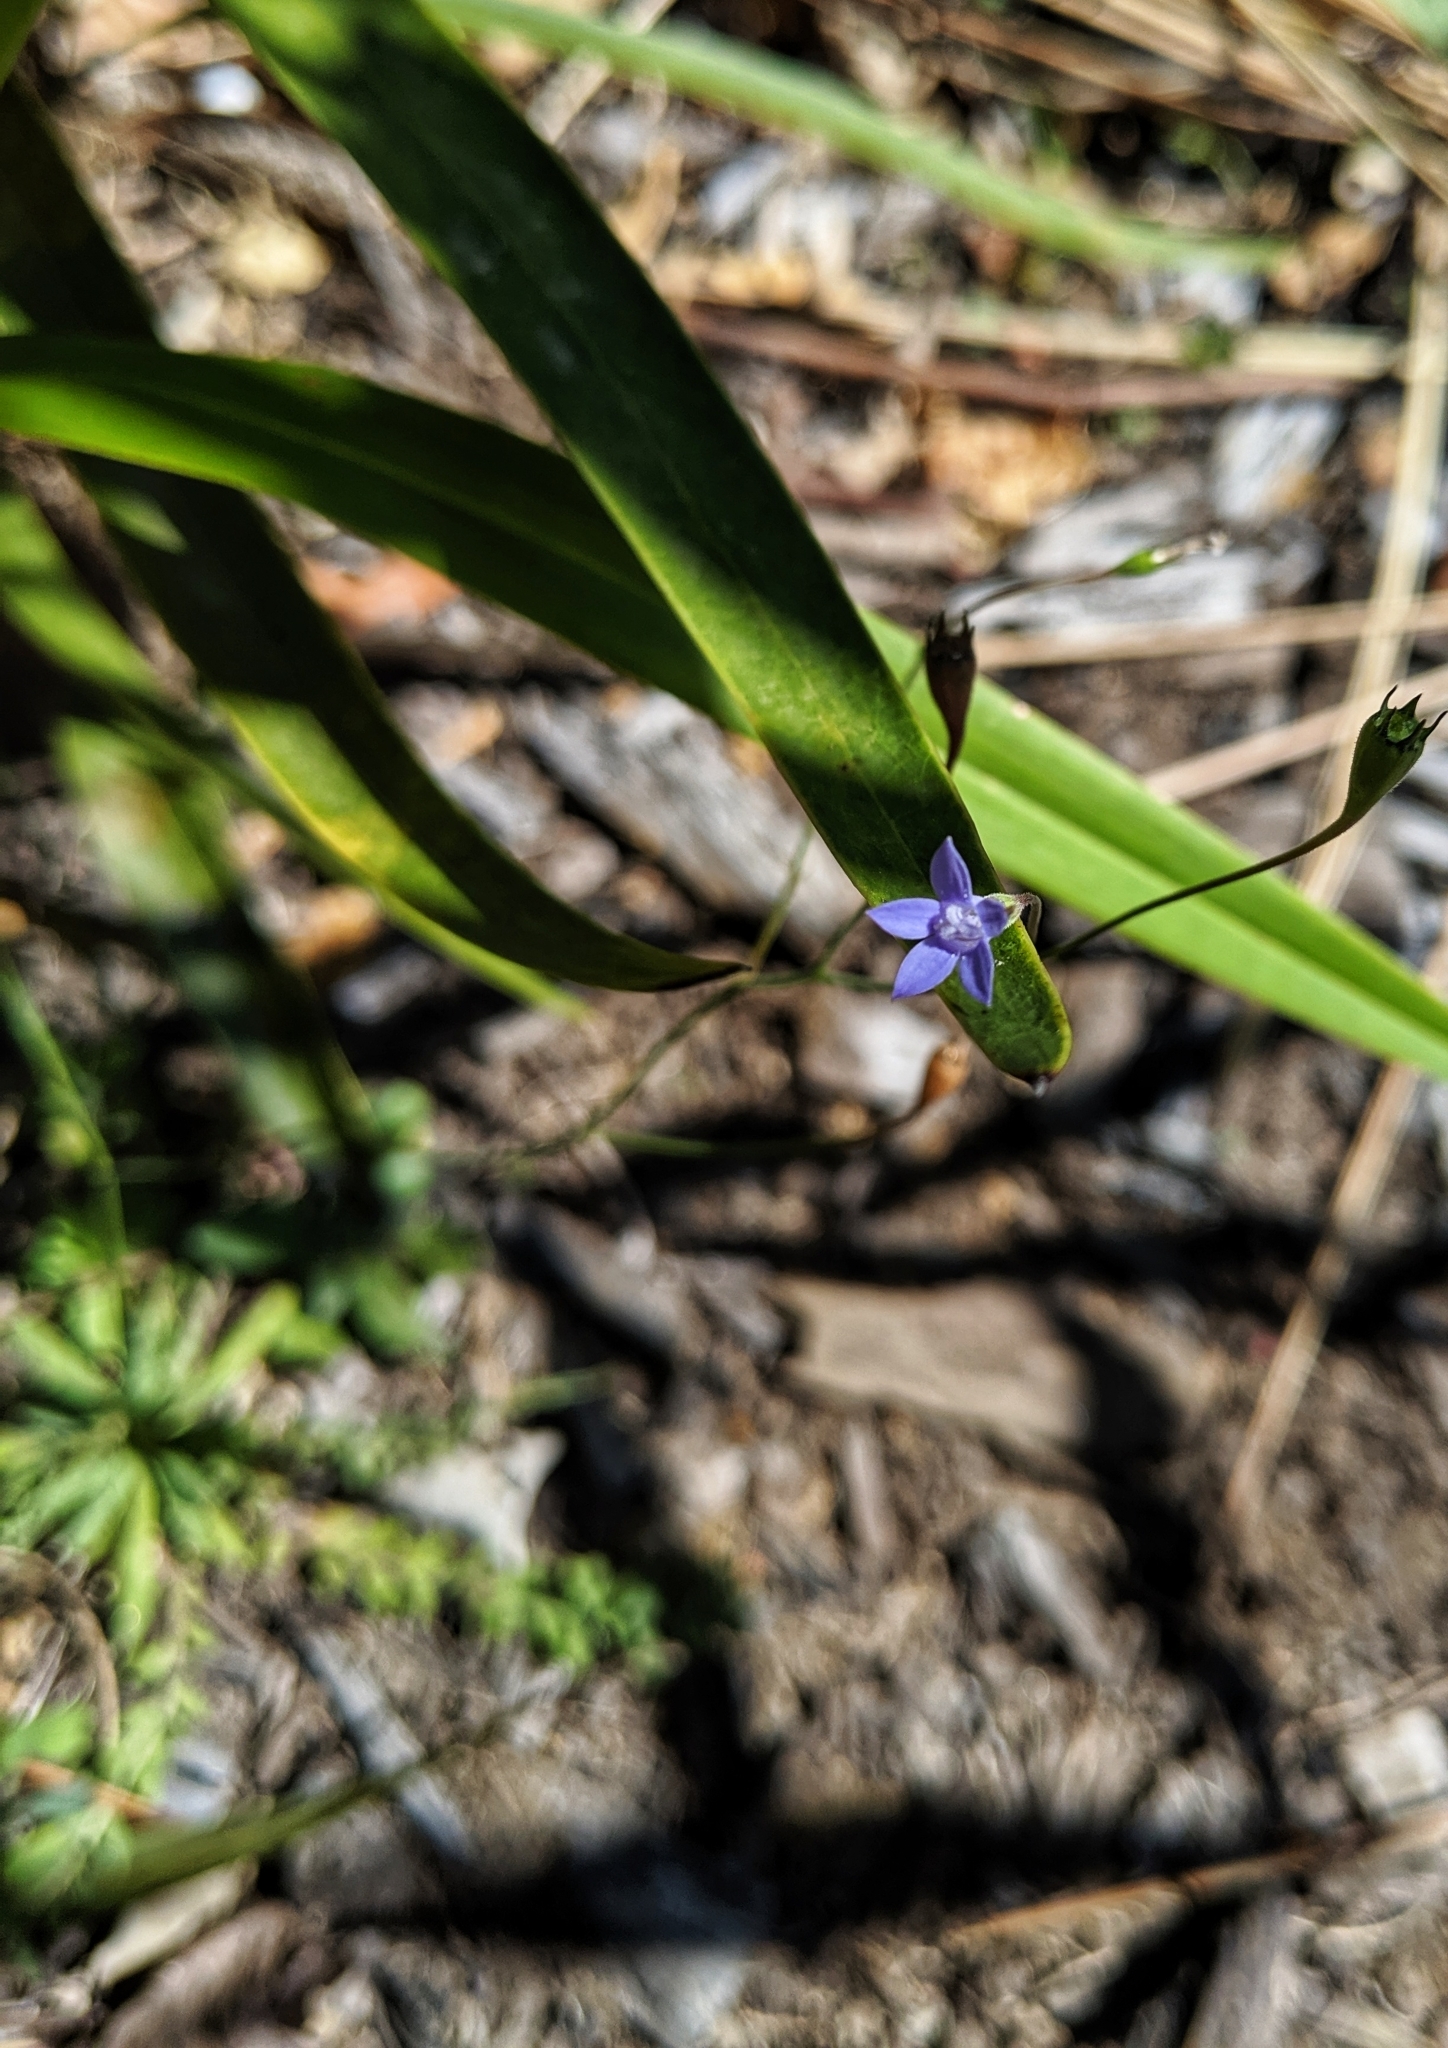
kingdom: Plantae
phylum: Tracheophyta
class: Magnoliopsida
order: Asterales
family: Campanulaceae
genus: Wahlenbergia
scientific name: Wahlenbergia gracilis
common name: Harebell
